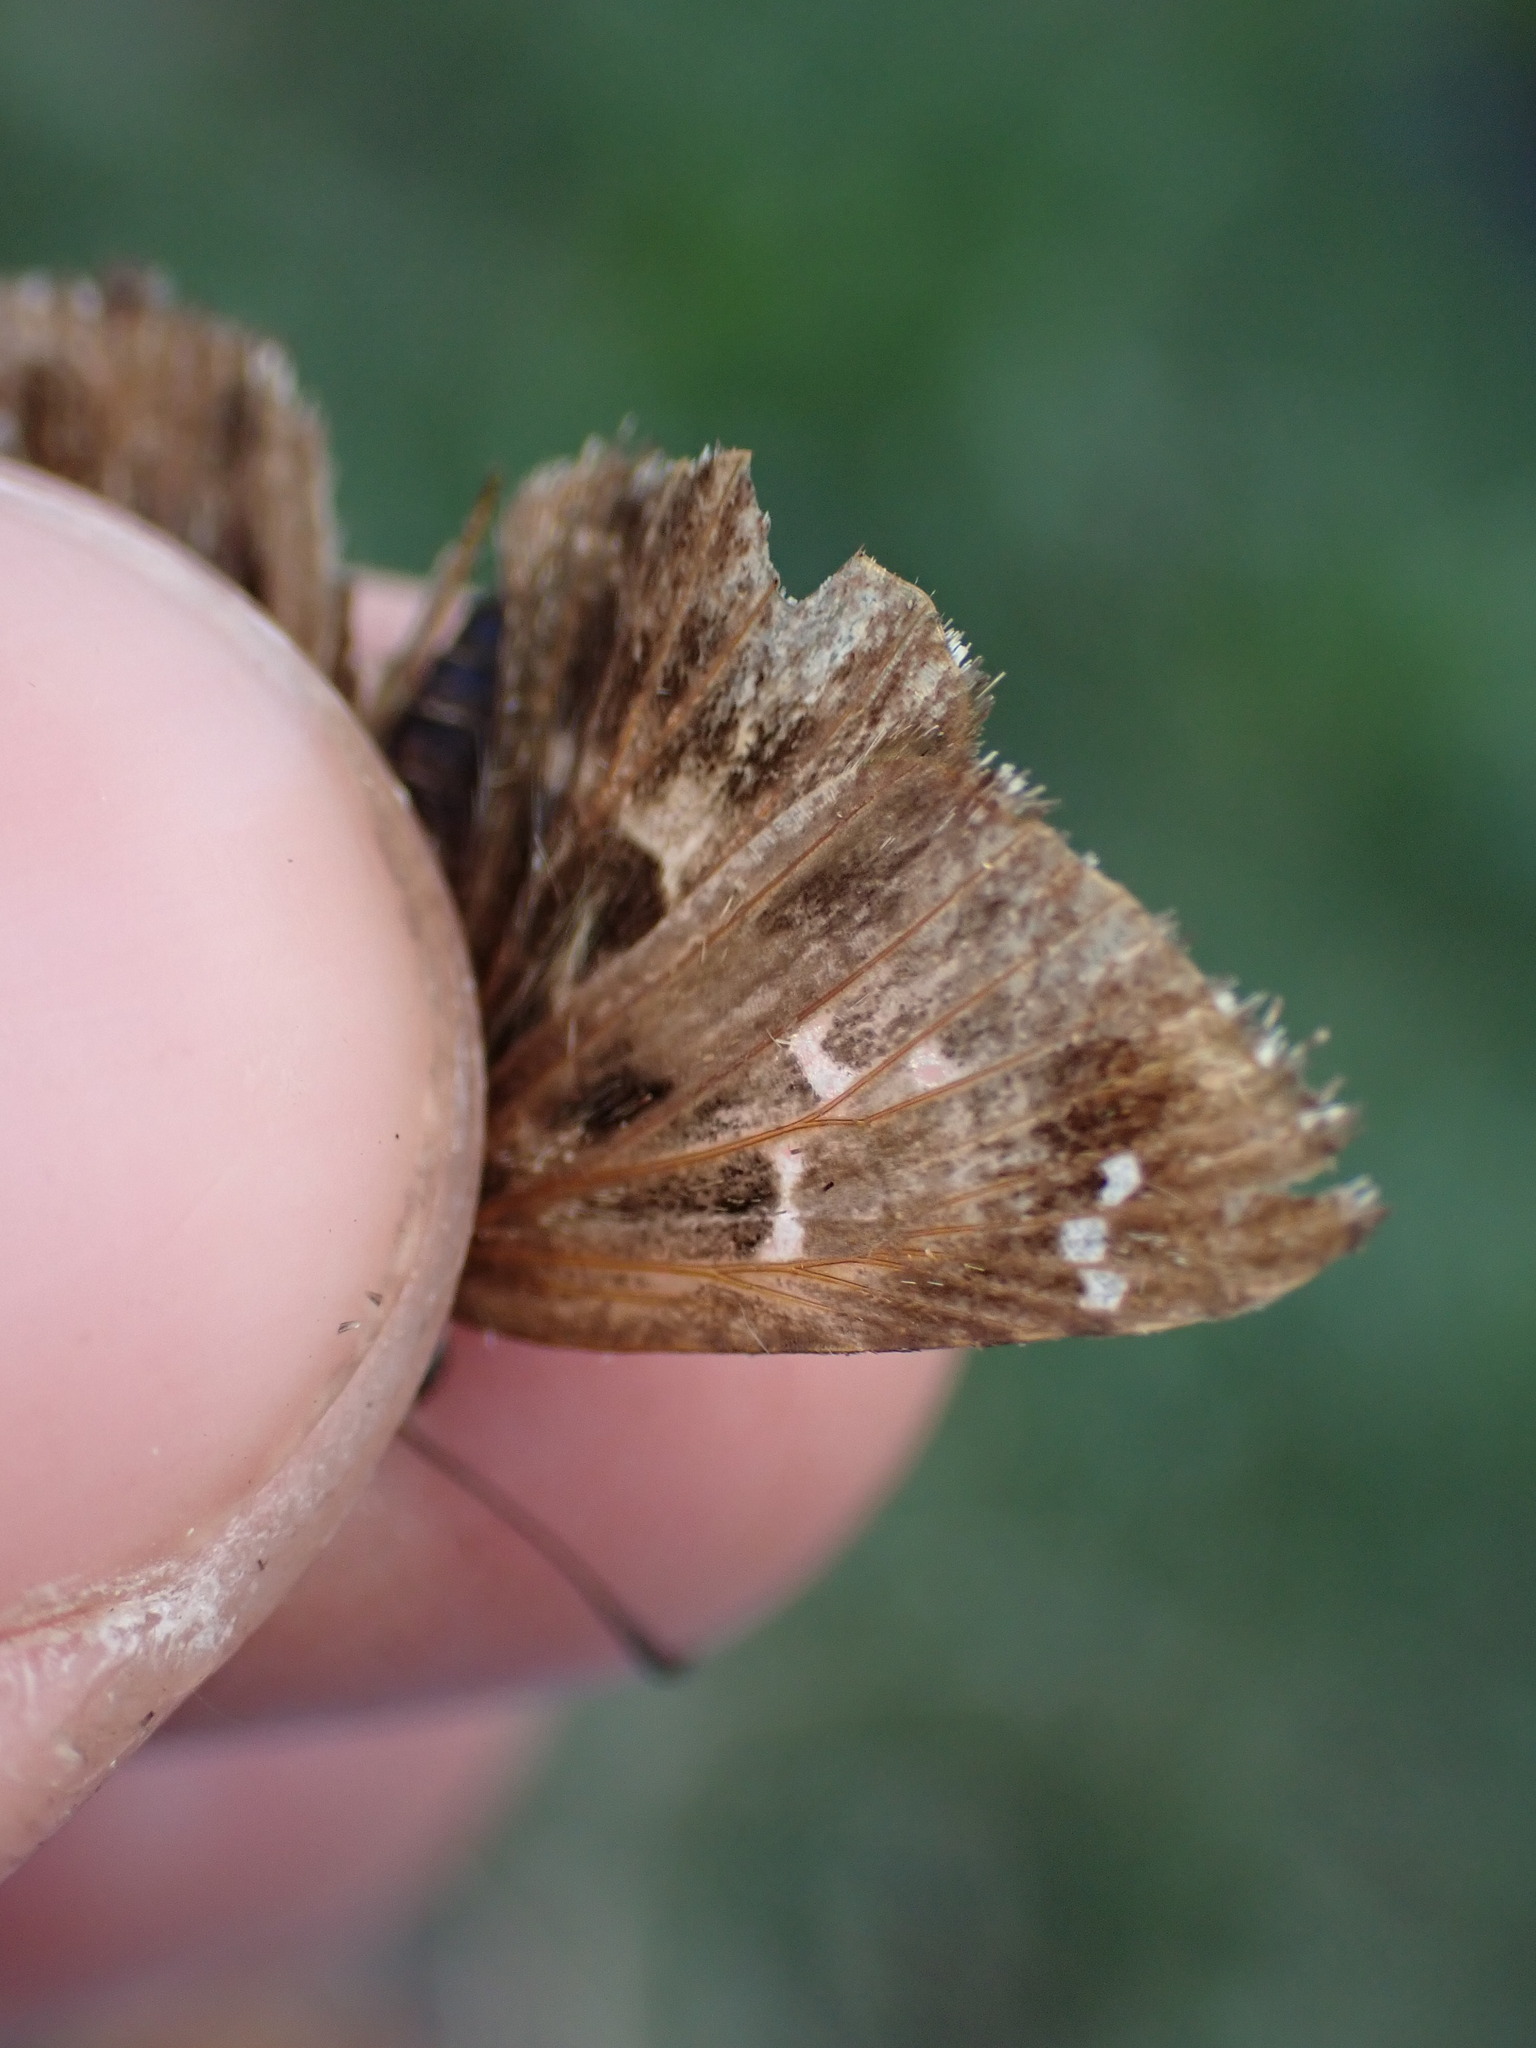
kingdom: Animalia
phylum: Arthropoda
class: Insecta
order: Lepidoptera
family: Hesperiidae
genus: Carcharodus
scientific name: Carcharodus alceae
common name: Mallow skipper
